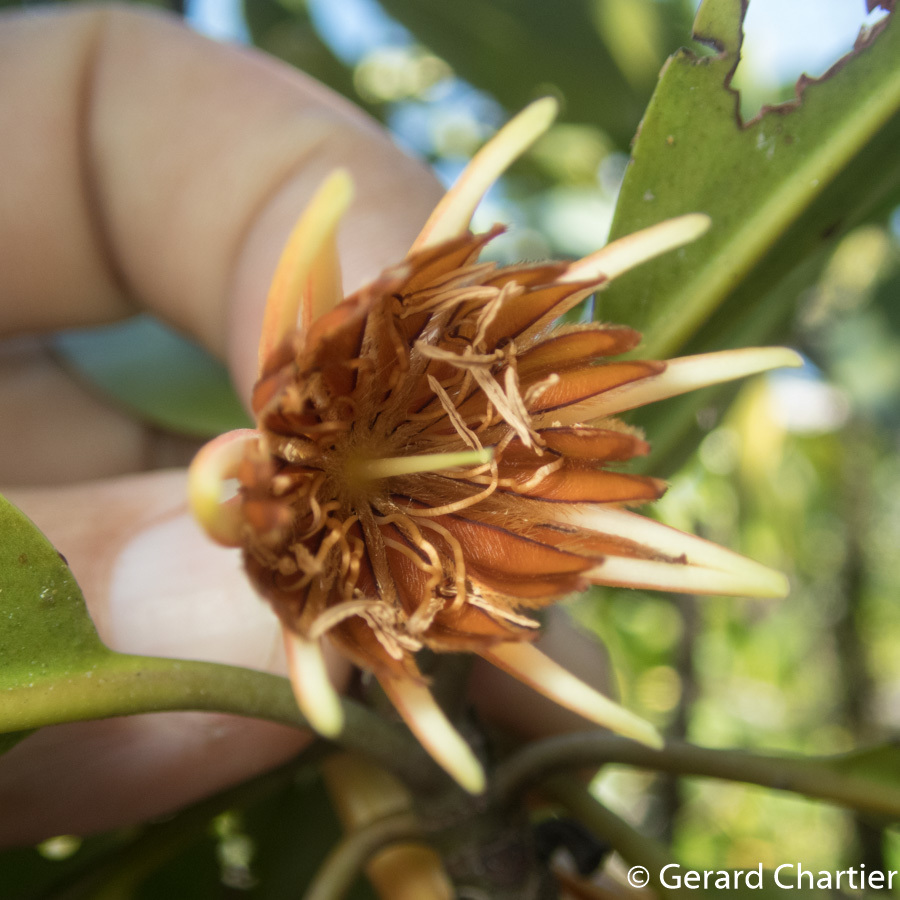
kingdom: Plantae
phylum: Tracheophyta
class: Magnoliopsida
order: Malpighiales
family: Rhizophoraceae
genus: Bruguiera
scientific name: Bruguiera gymnorhiza
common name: Oriental mangrove
